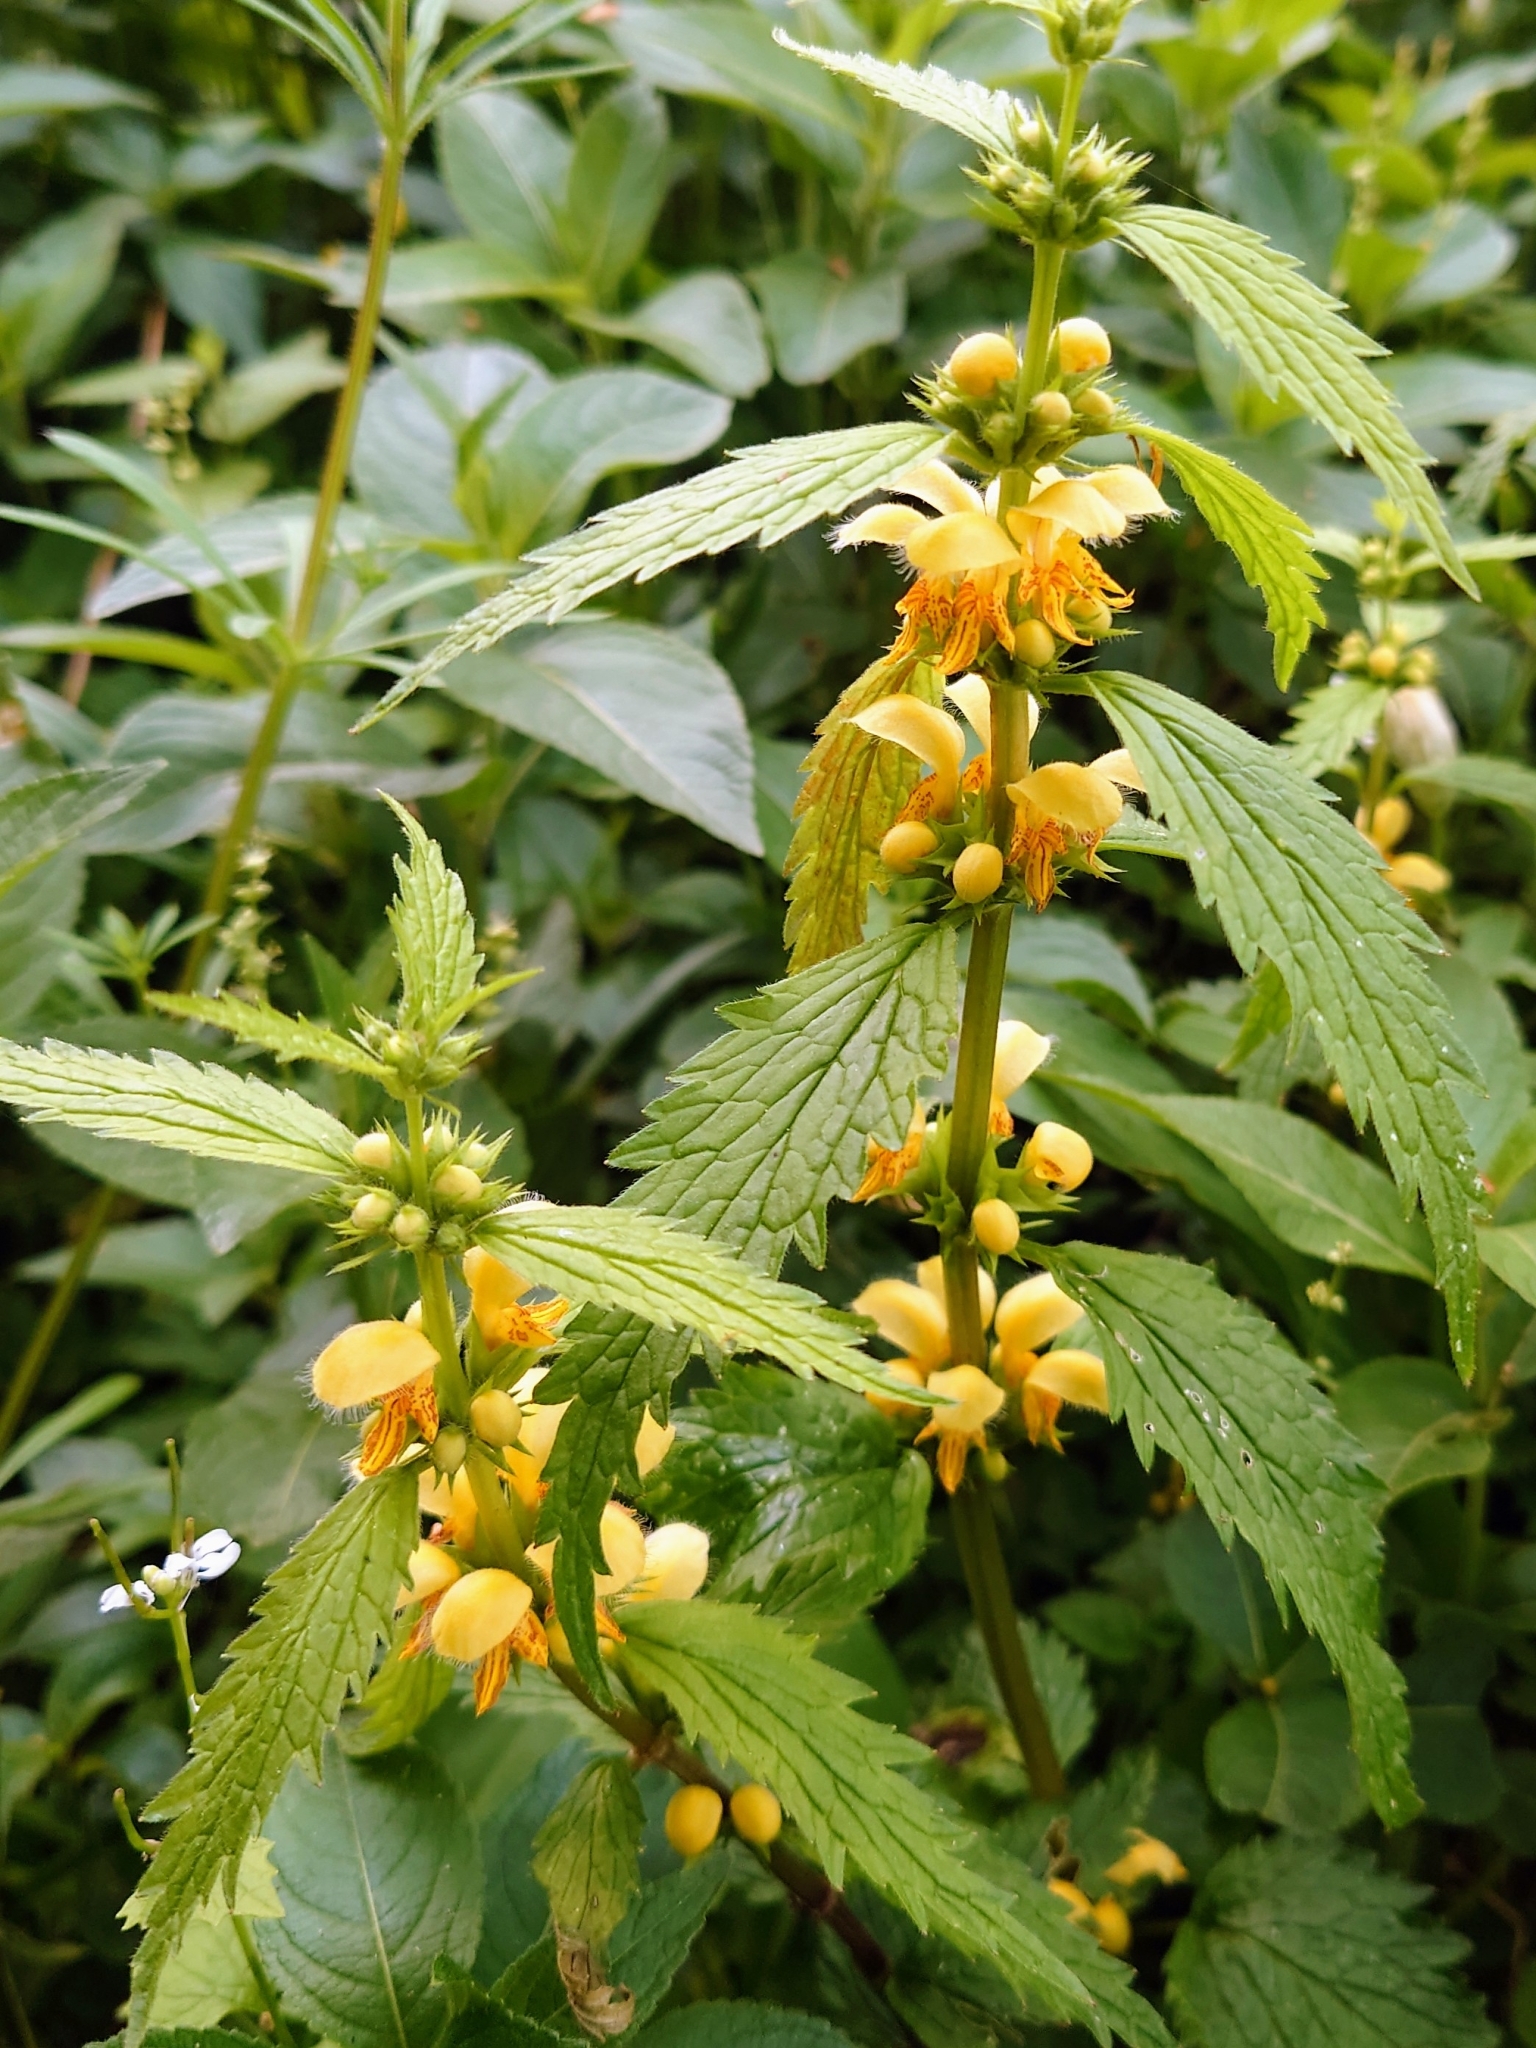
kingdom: Plantae
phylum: Tracheophyta
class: Magnoliopsida
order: Lamiales
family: Lamiaceae
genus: Lamium
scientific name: Lamium galeobdolon
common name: Yellow archangel
